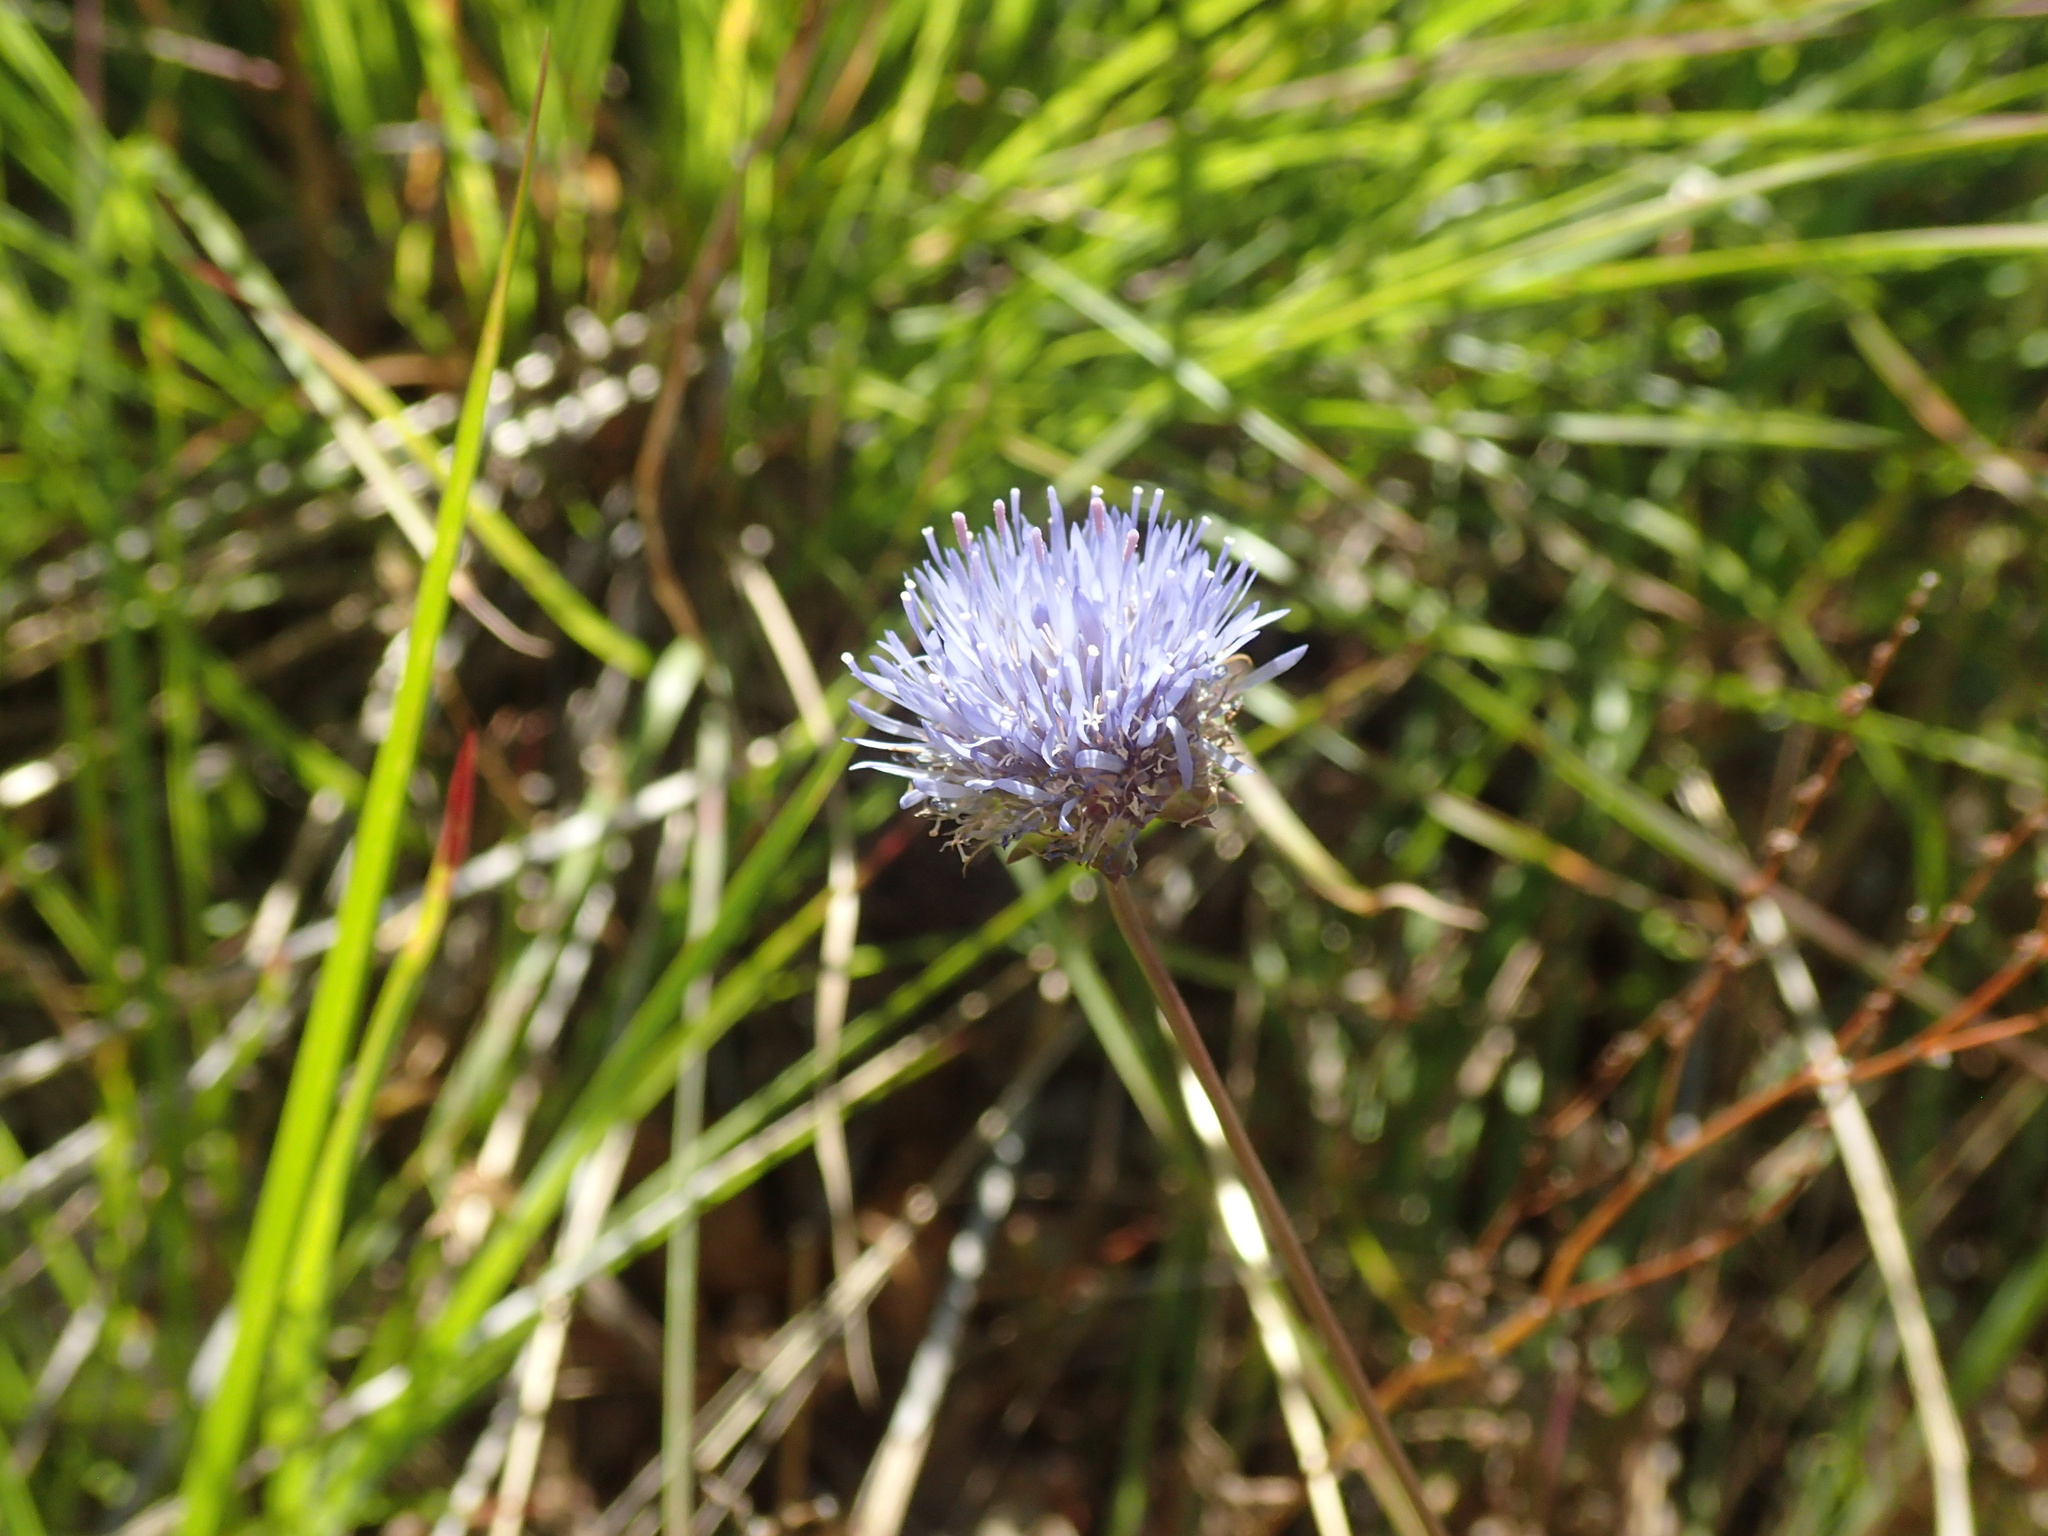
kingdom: Plantae
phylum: Tracheophyta
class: Magnoliopsida
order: Asterales
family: Campanulaceae
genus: Jasione
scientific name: Jasione montana
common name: Sheep's-bit
